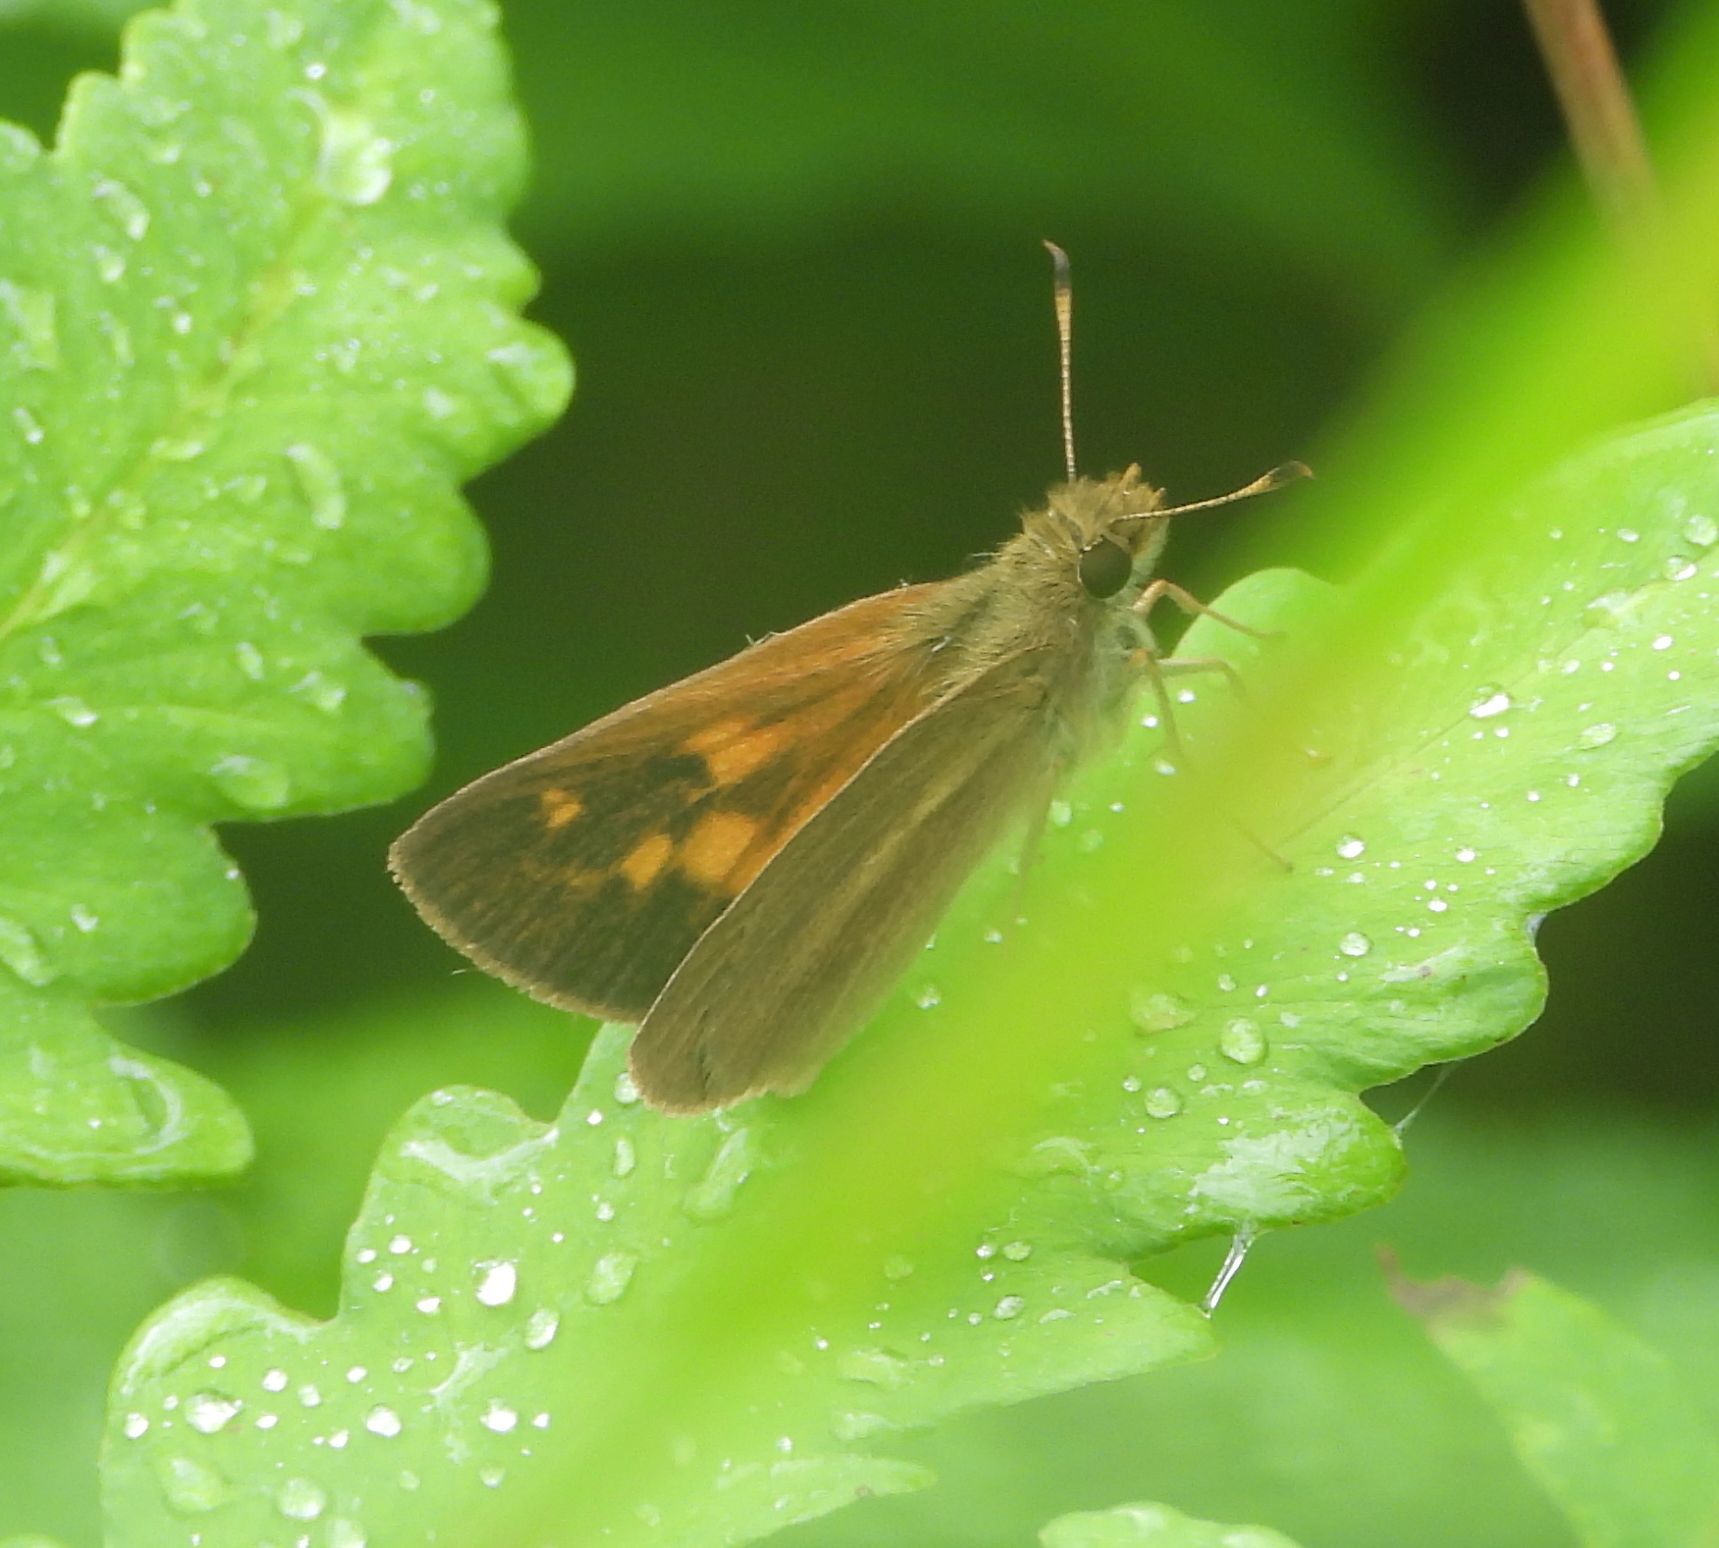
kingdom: Animalia
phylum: Arthropoda
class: Insecta
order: Lepidoptera
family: Hesperiidae
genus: Poanes
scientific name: Poanes viator
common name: Broad-winged skipper
